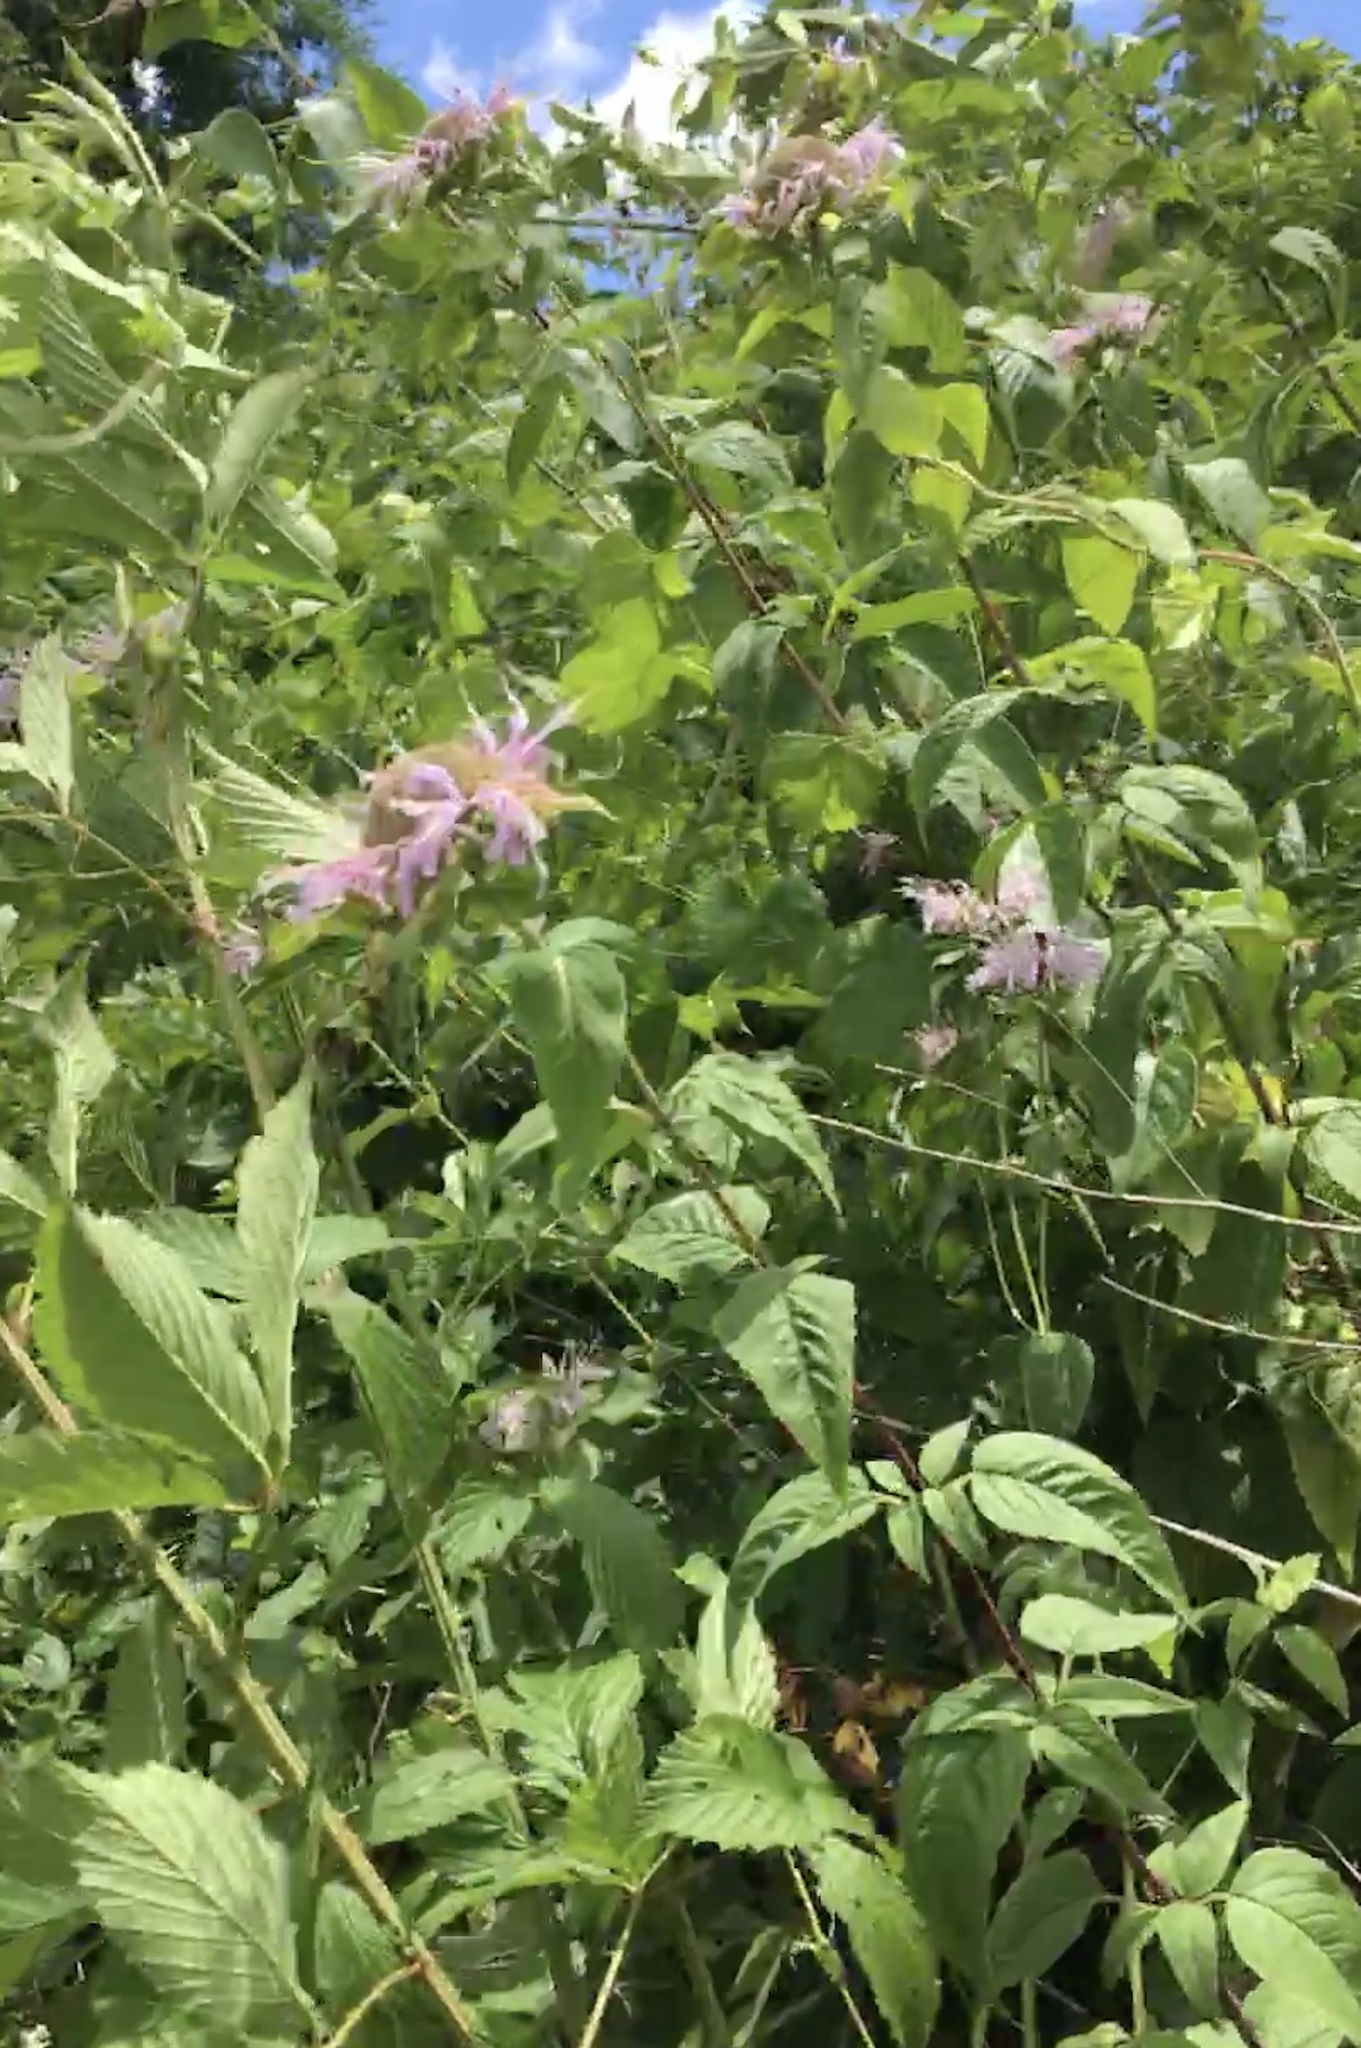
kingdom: Plantae
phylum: Tracheophyta
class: Magnoliopsida
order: Lamiales
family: Lamiaceae
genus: Monarda
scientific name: Monarda fistulosa
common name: Purple beebalm
